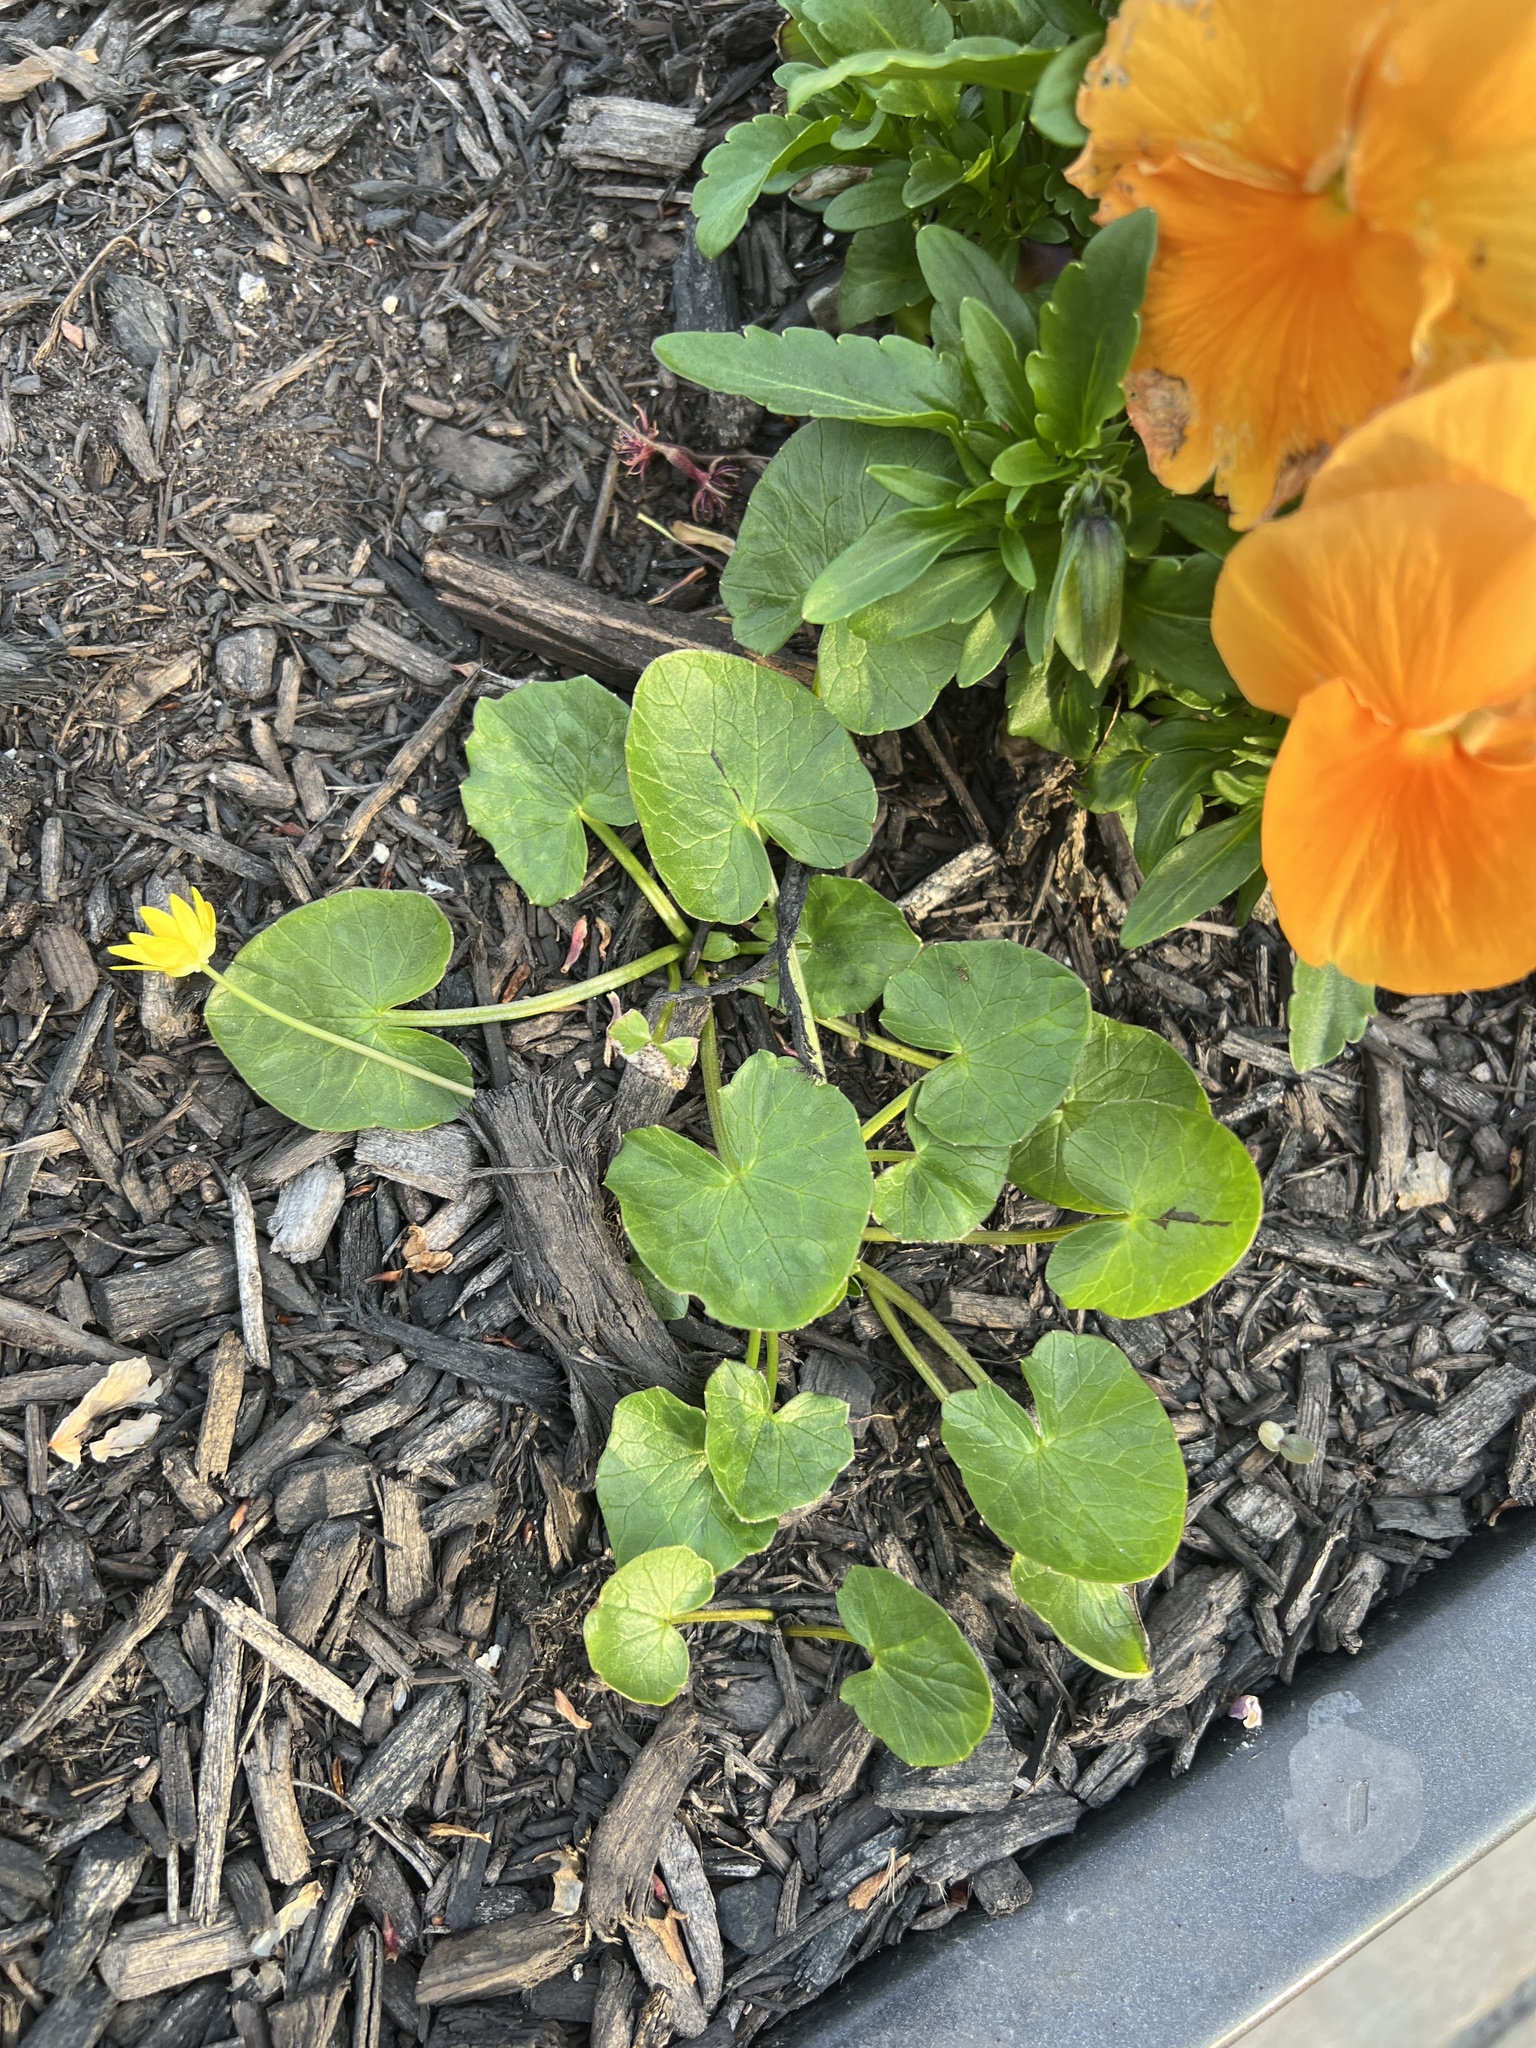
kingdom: Plantae
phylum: Tracheophyta
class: Magnoliopsida
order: Ranunculales
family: Ranunculaceae
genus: Ficaria
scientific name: Ficaria verna
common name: Lesser celandine
